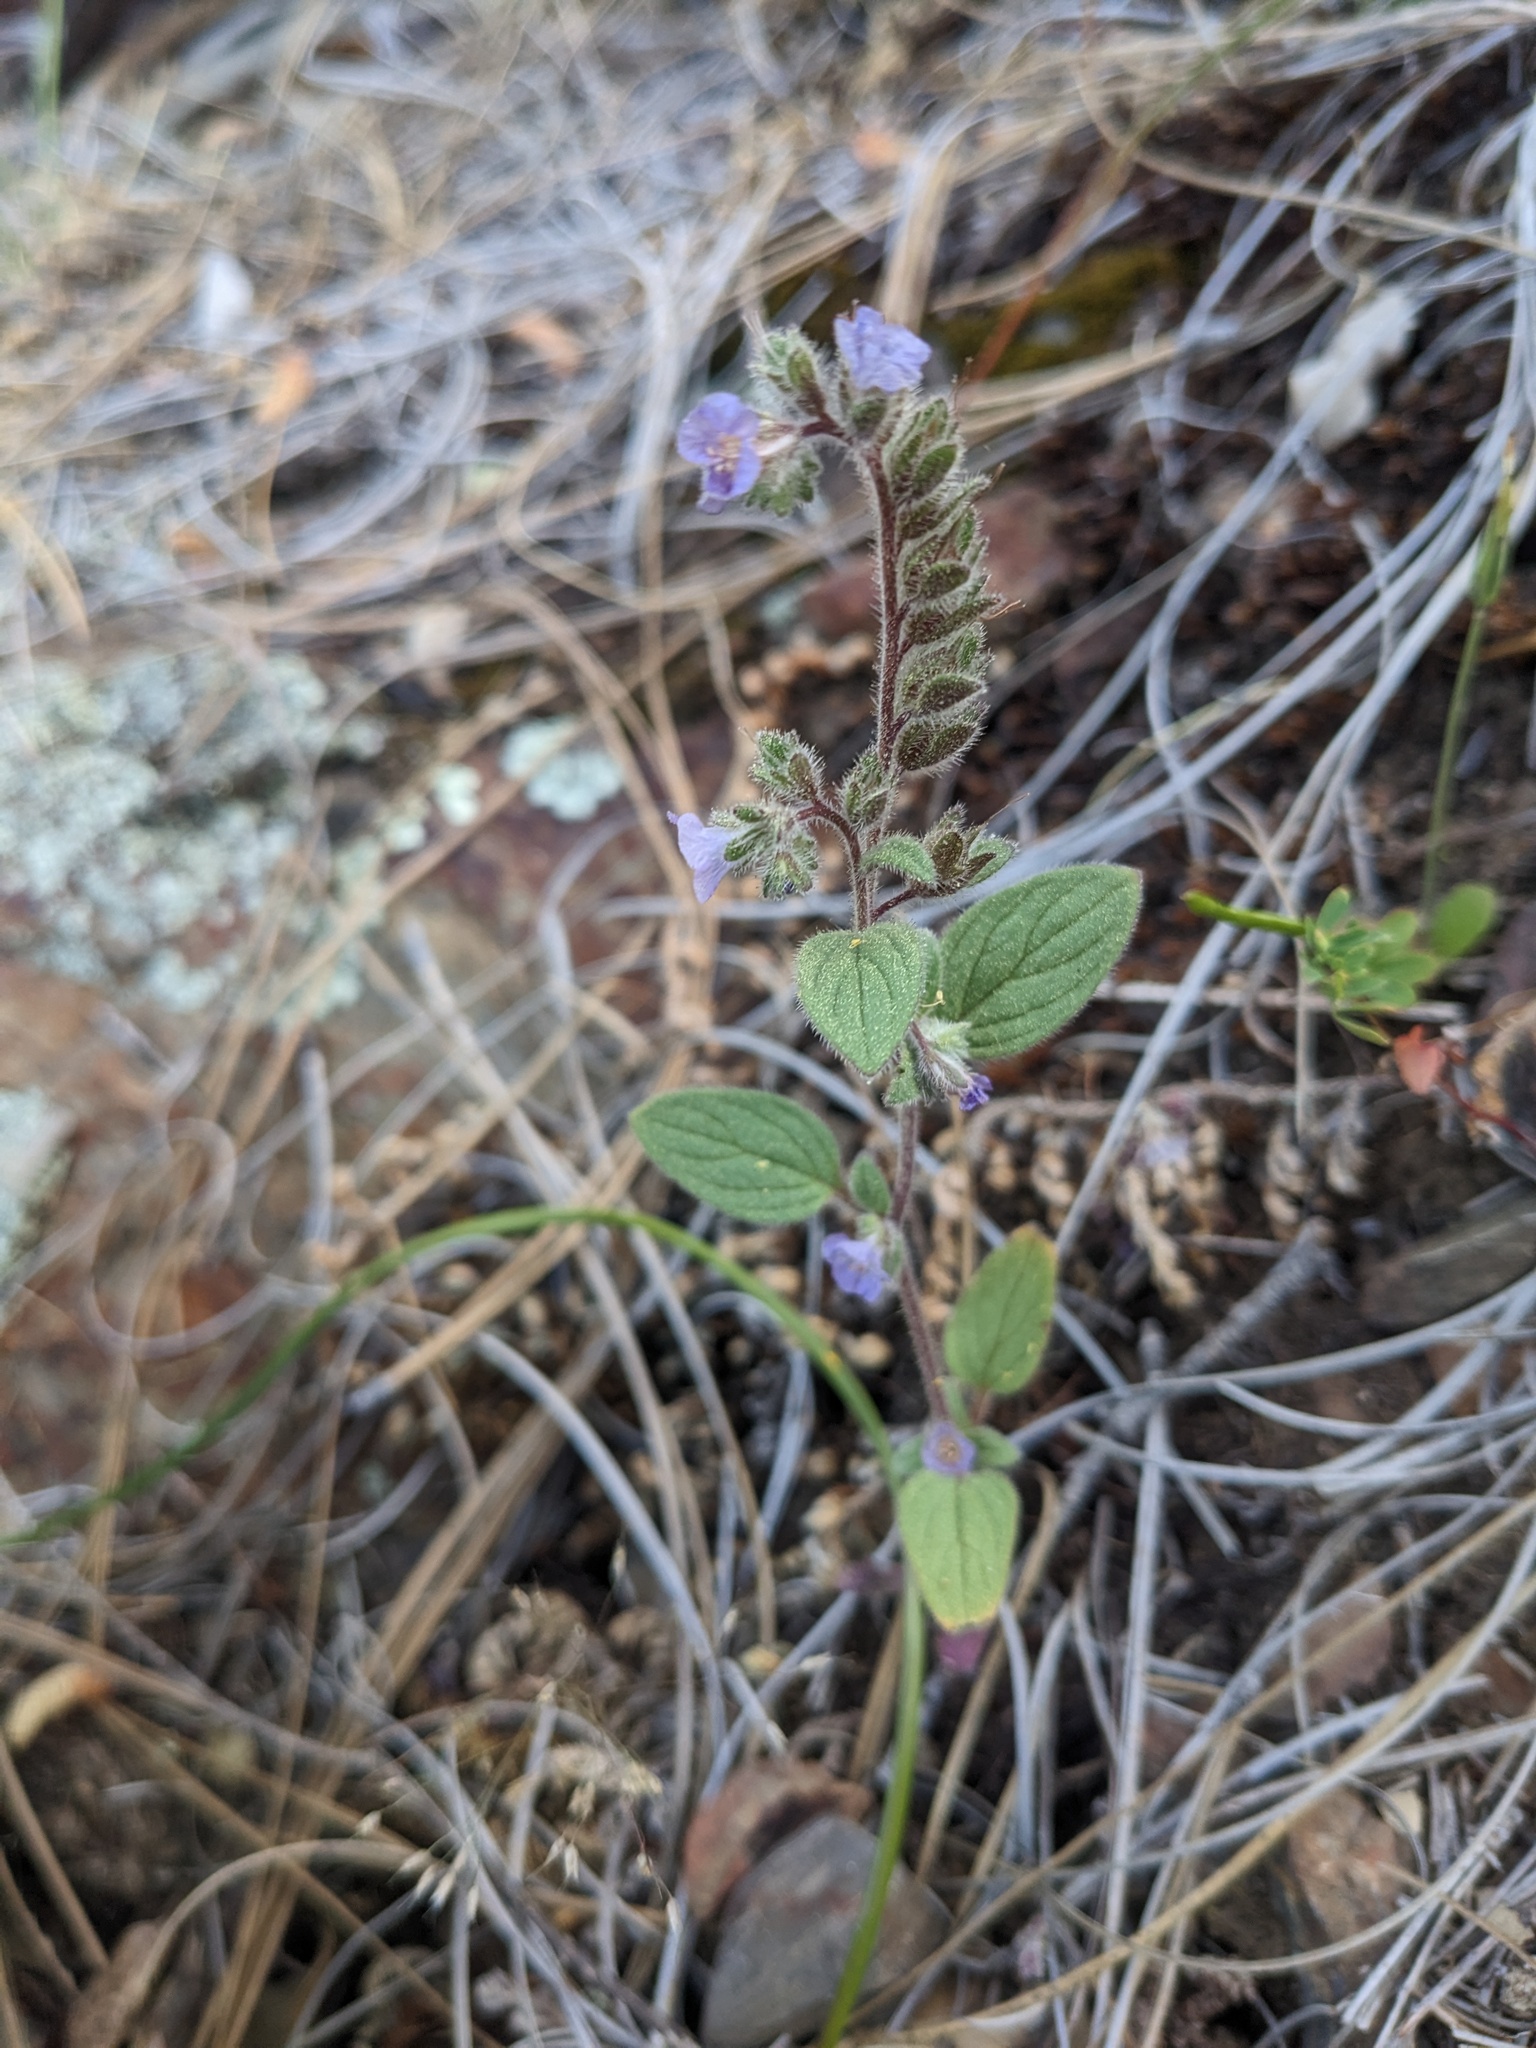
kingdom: Plantae
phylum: Tracheophyta
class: Magnoliopsida
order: Boraginales
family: Hydrophyllaceae
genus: Phacelia
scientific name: Phacelia vallicola
